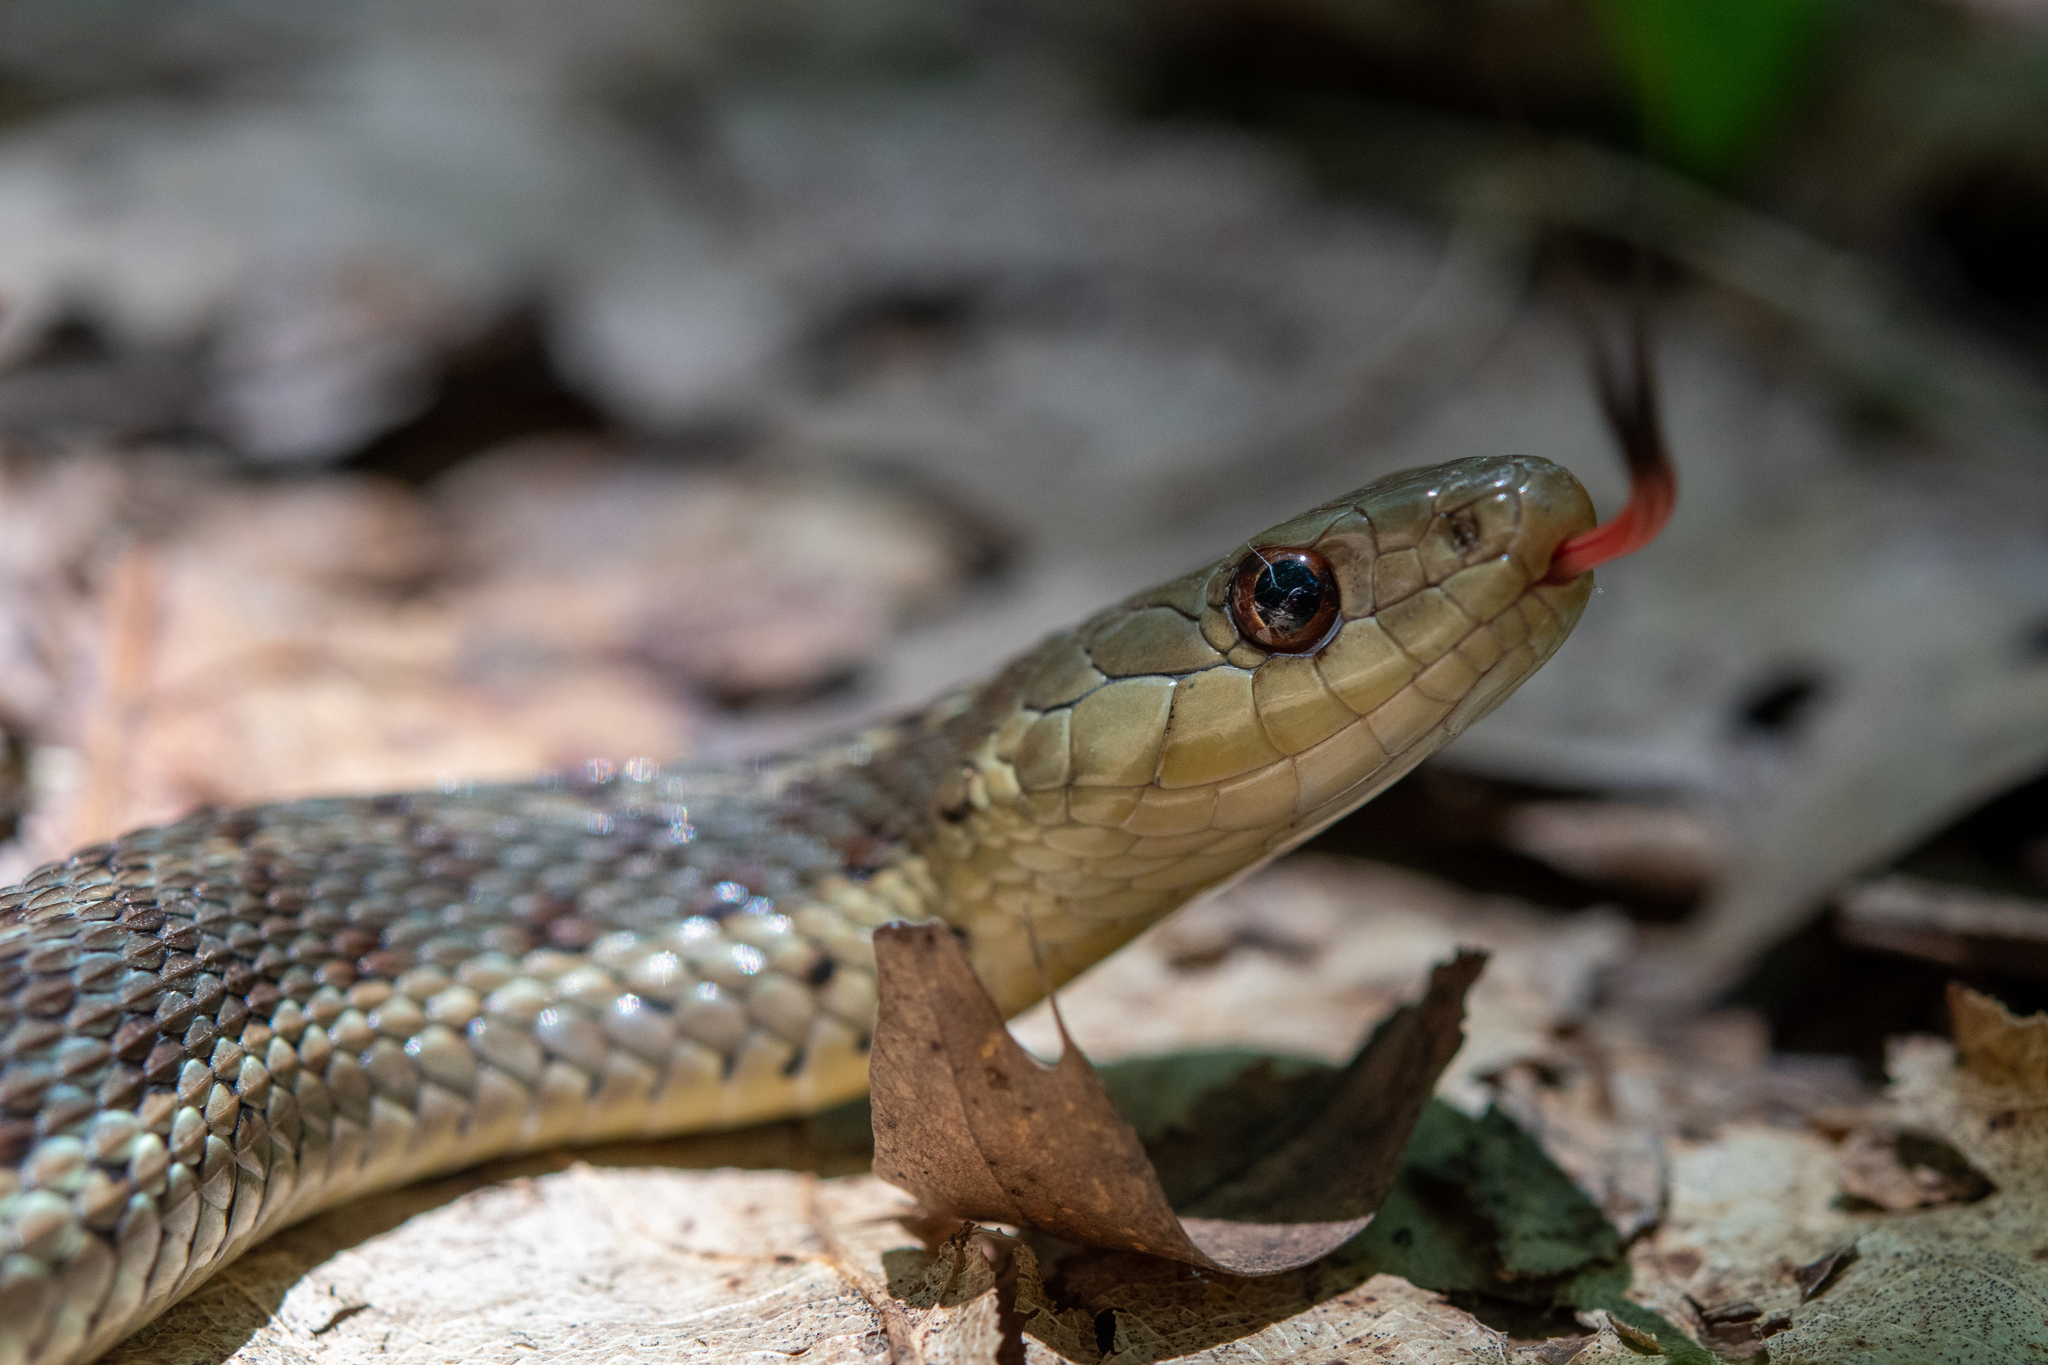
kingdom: Animalia
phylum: Chordata
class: Squamata
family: Colubridae
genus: Thamnophis
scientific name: Thamnophis sirtalis
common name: Common garter snake
